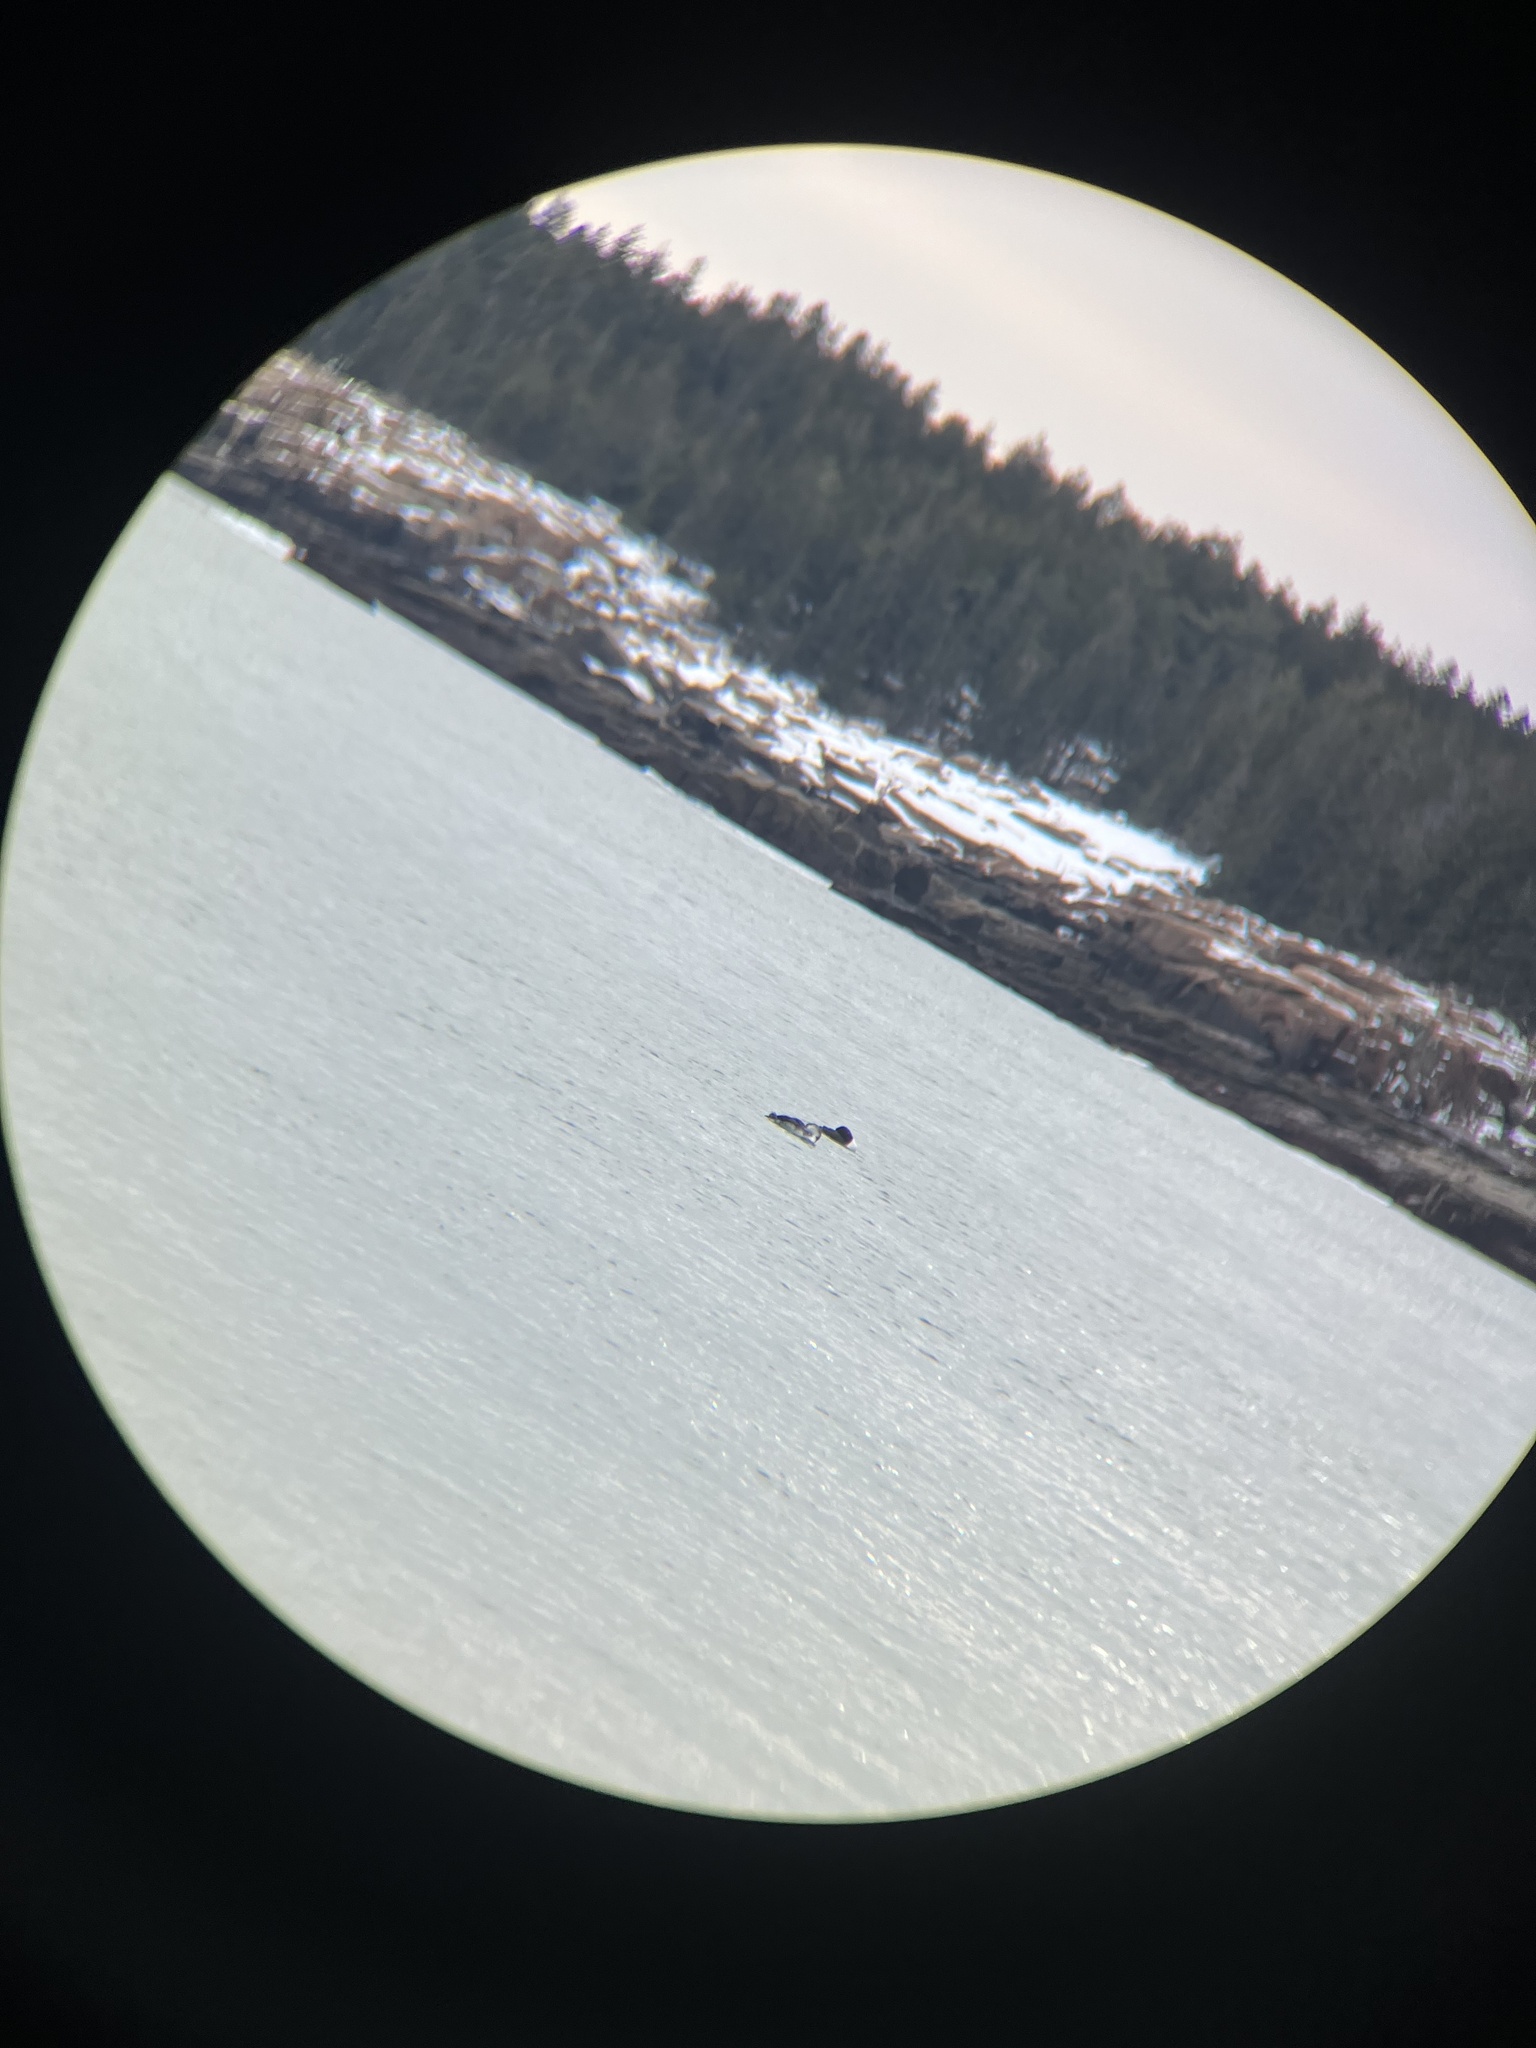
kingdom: Animalia
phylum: Chordata
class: Aves
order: Gaviiformes
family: Gaviidae
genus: Gavia
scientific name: Gavia immer
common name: Common loon
